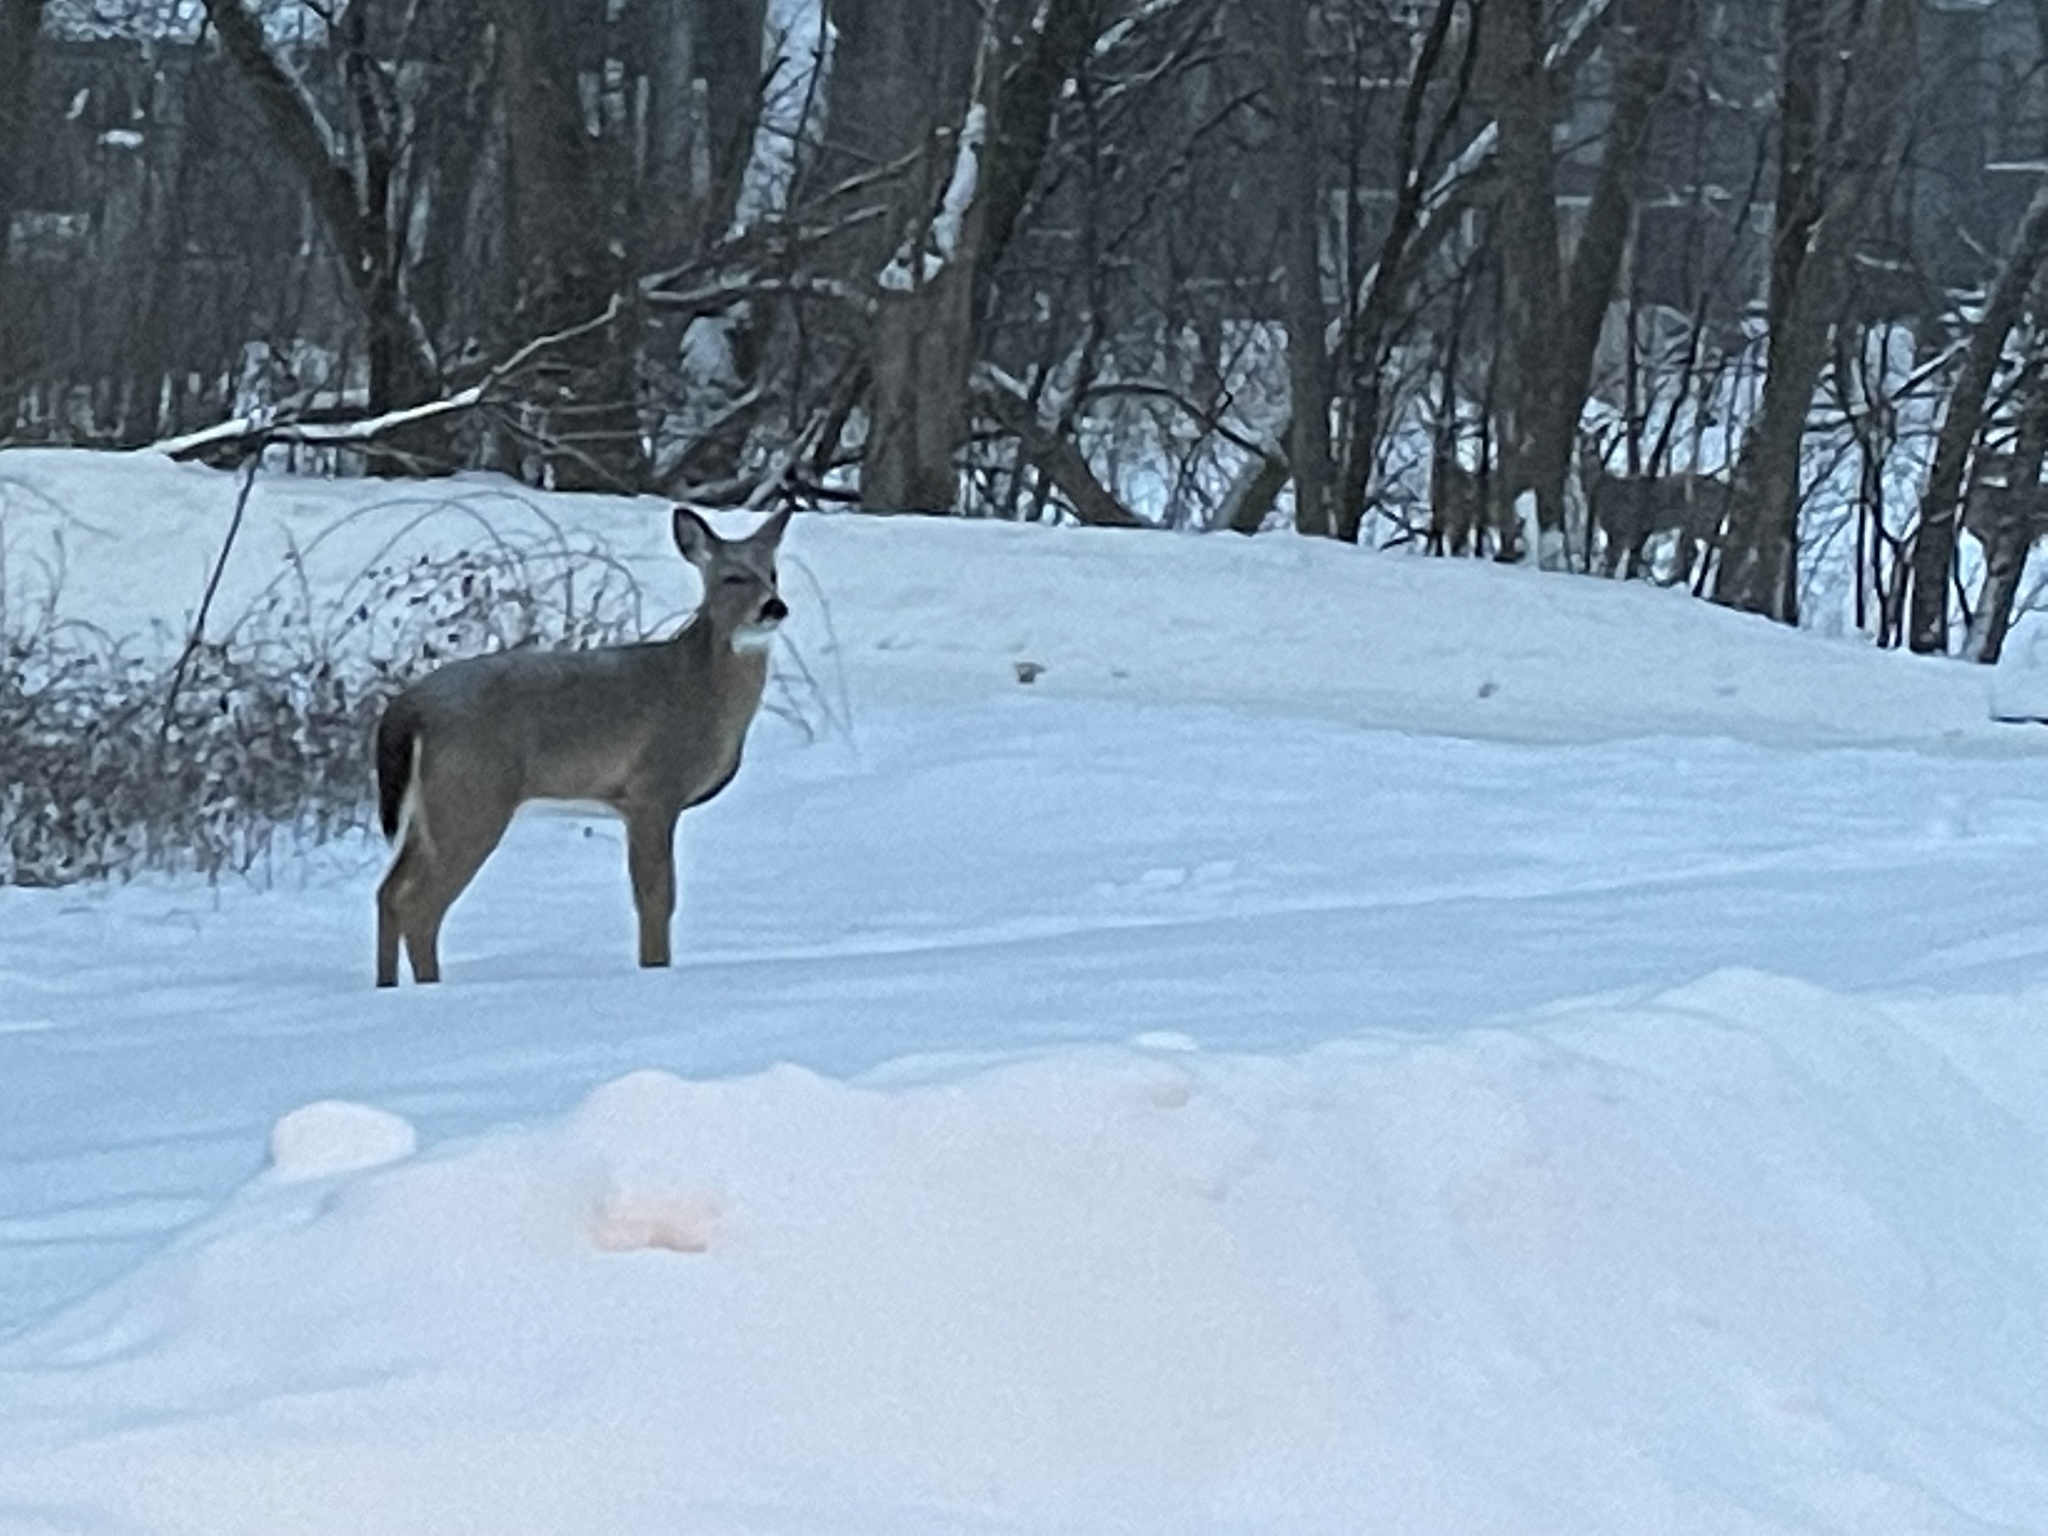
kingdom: Animalia
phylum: Chordata
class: Mammalia
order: Artiodactyla
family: Cervidae
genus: Odocoileus
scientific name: Odocoileus virginianus
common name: White-tailed deer
